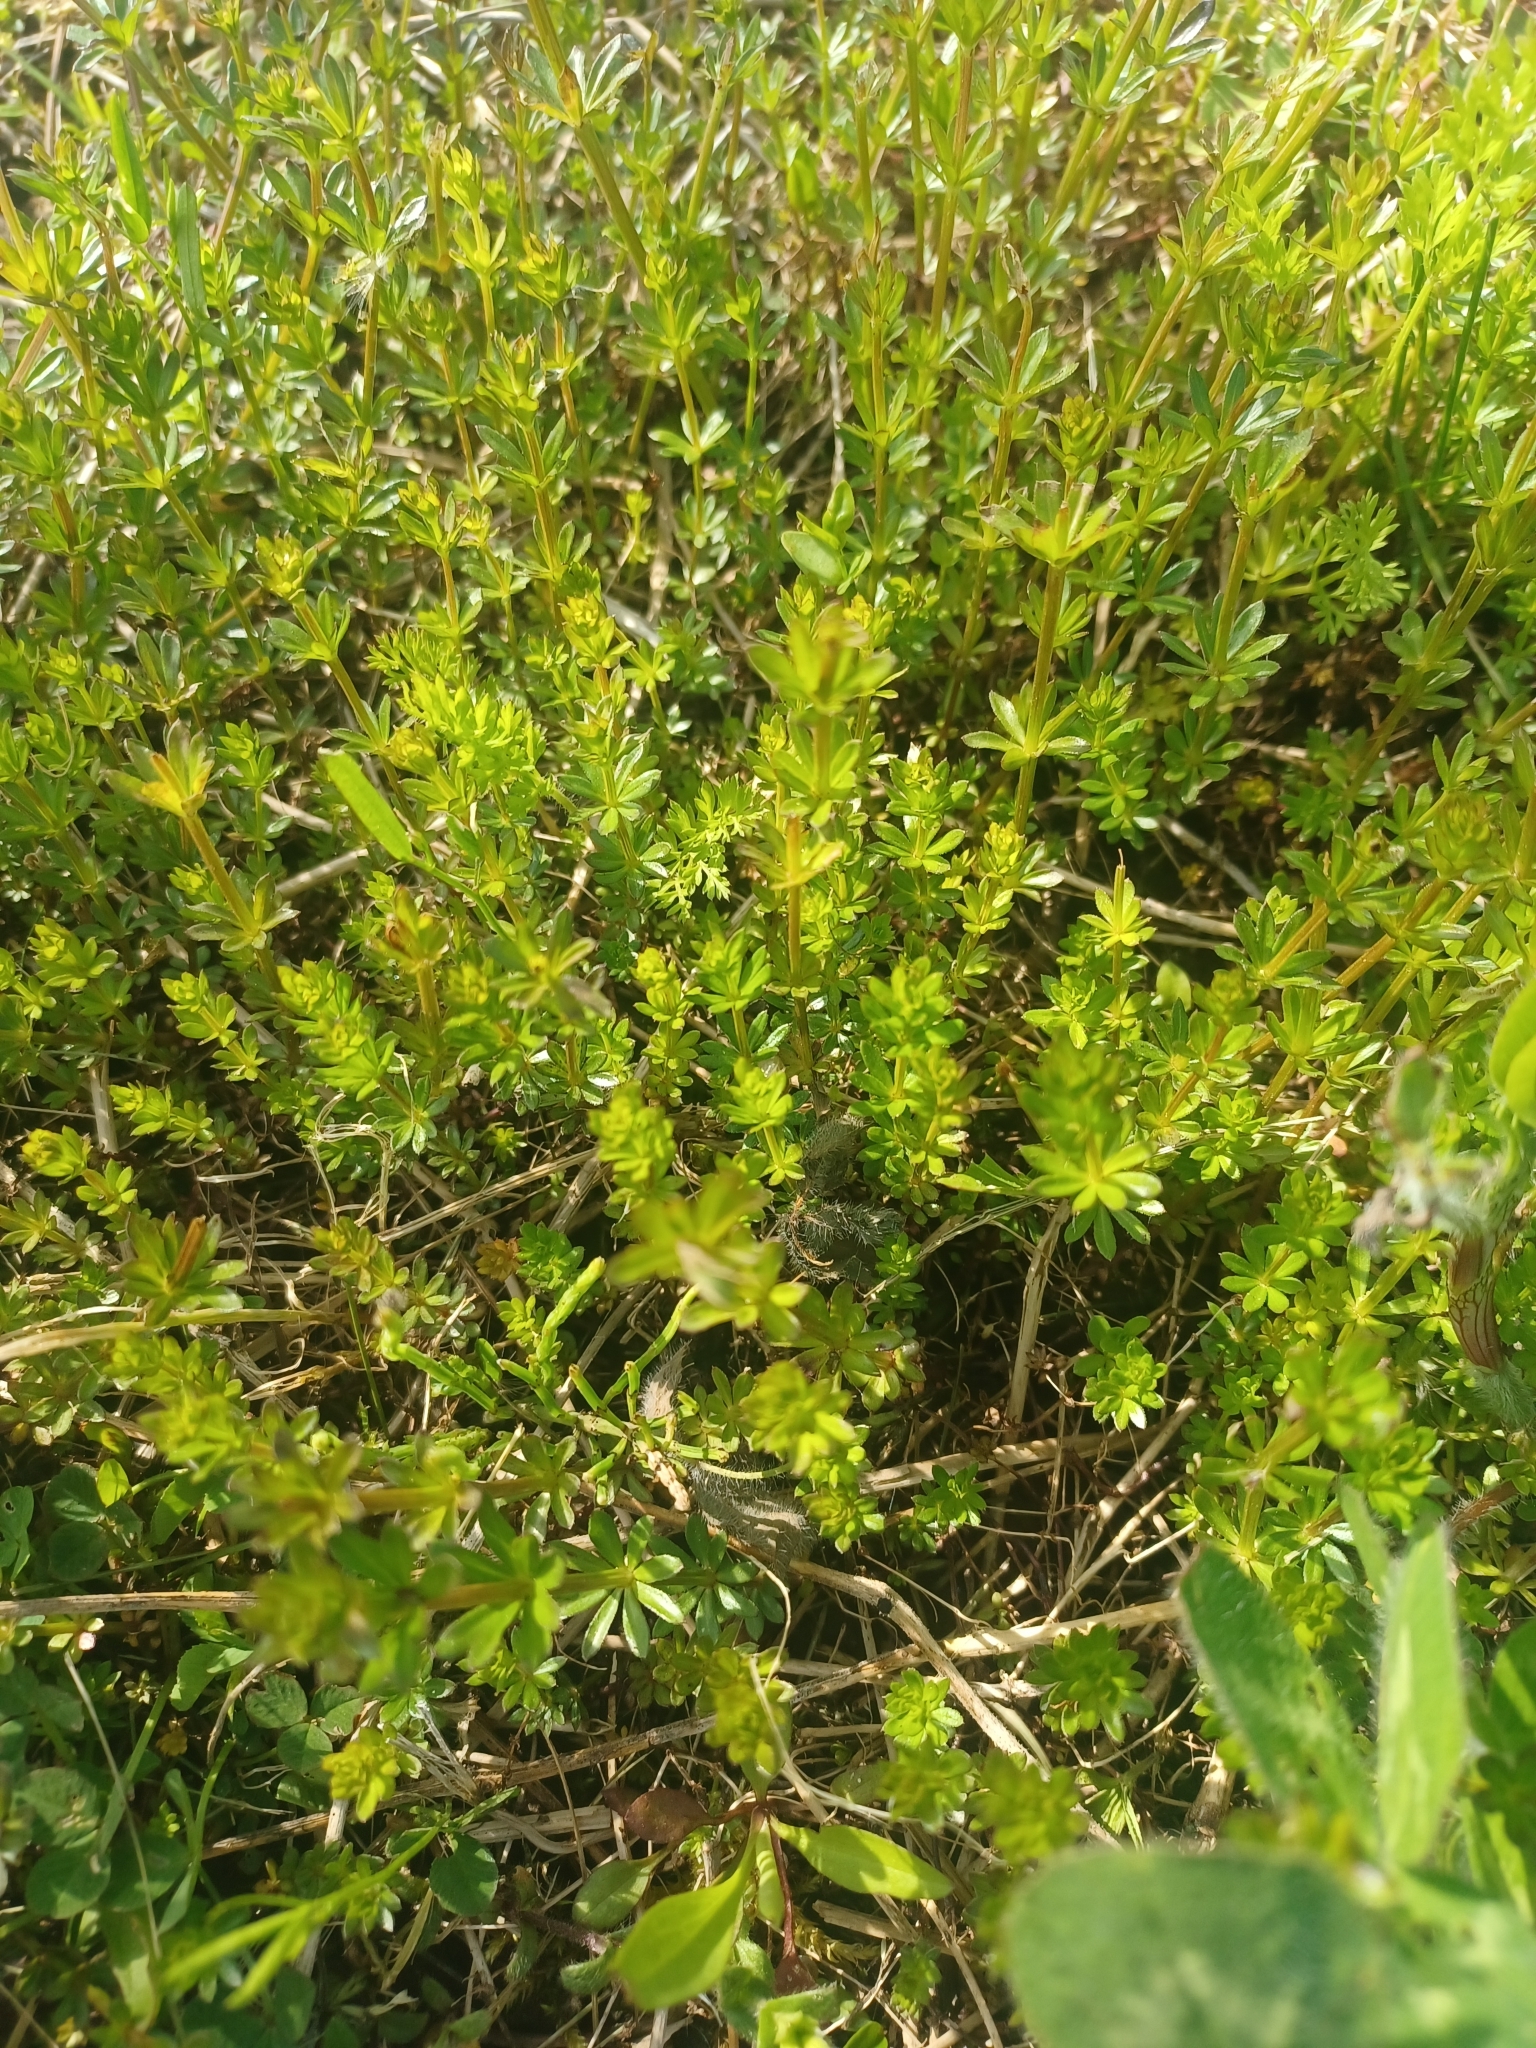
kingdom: Plantae
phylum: Tracheophyta
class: Magnoliopsida
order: Gentianales
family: Rubiaceae
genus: Galium
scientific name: Galium mollugo
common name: Hedge bedstraw
